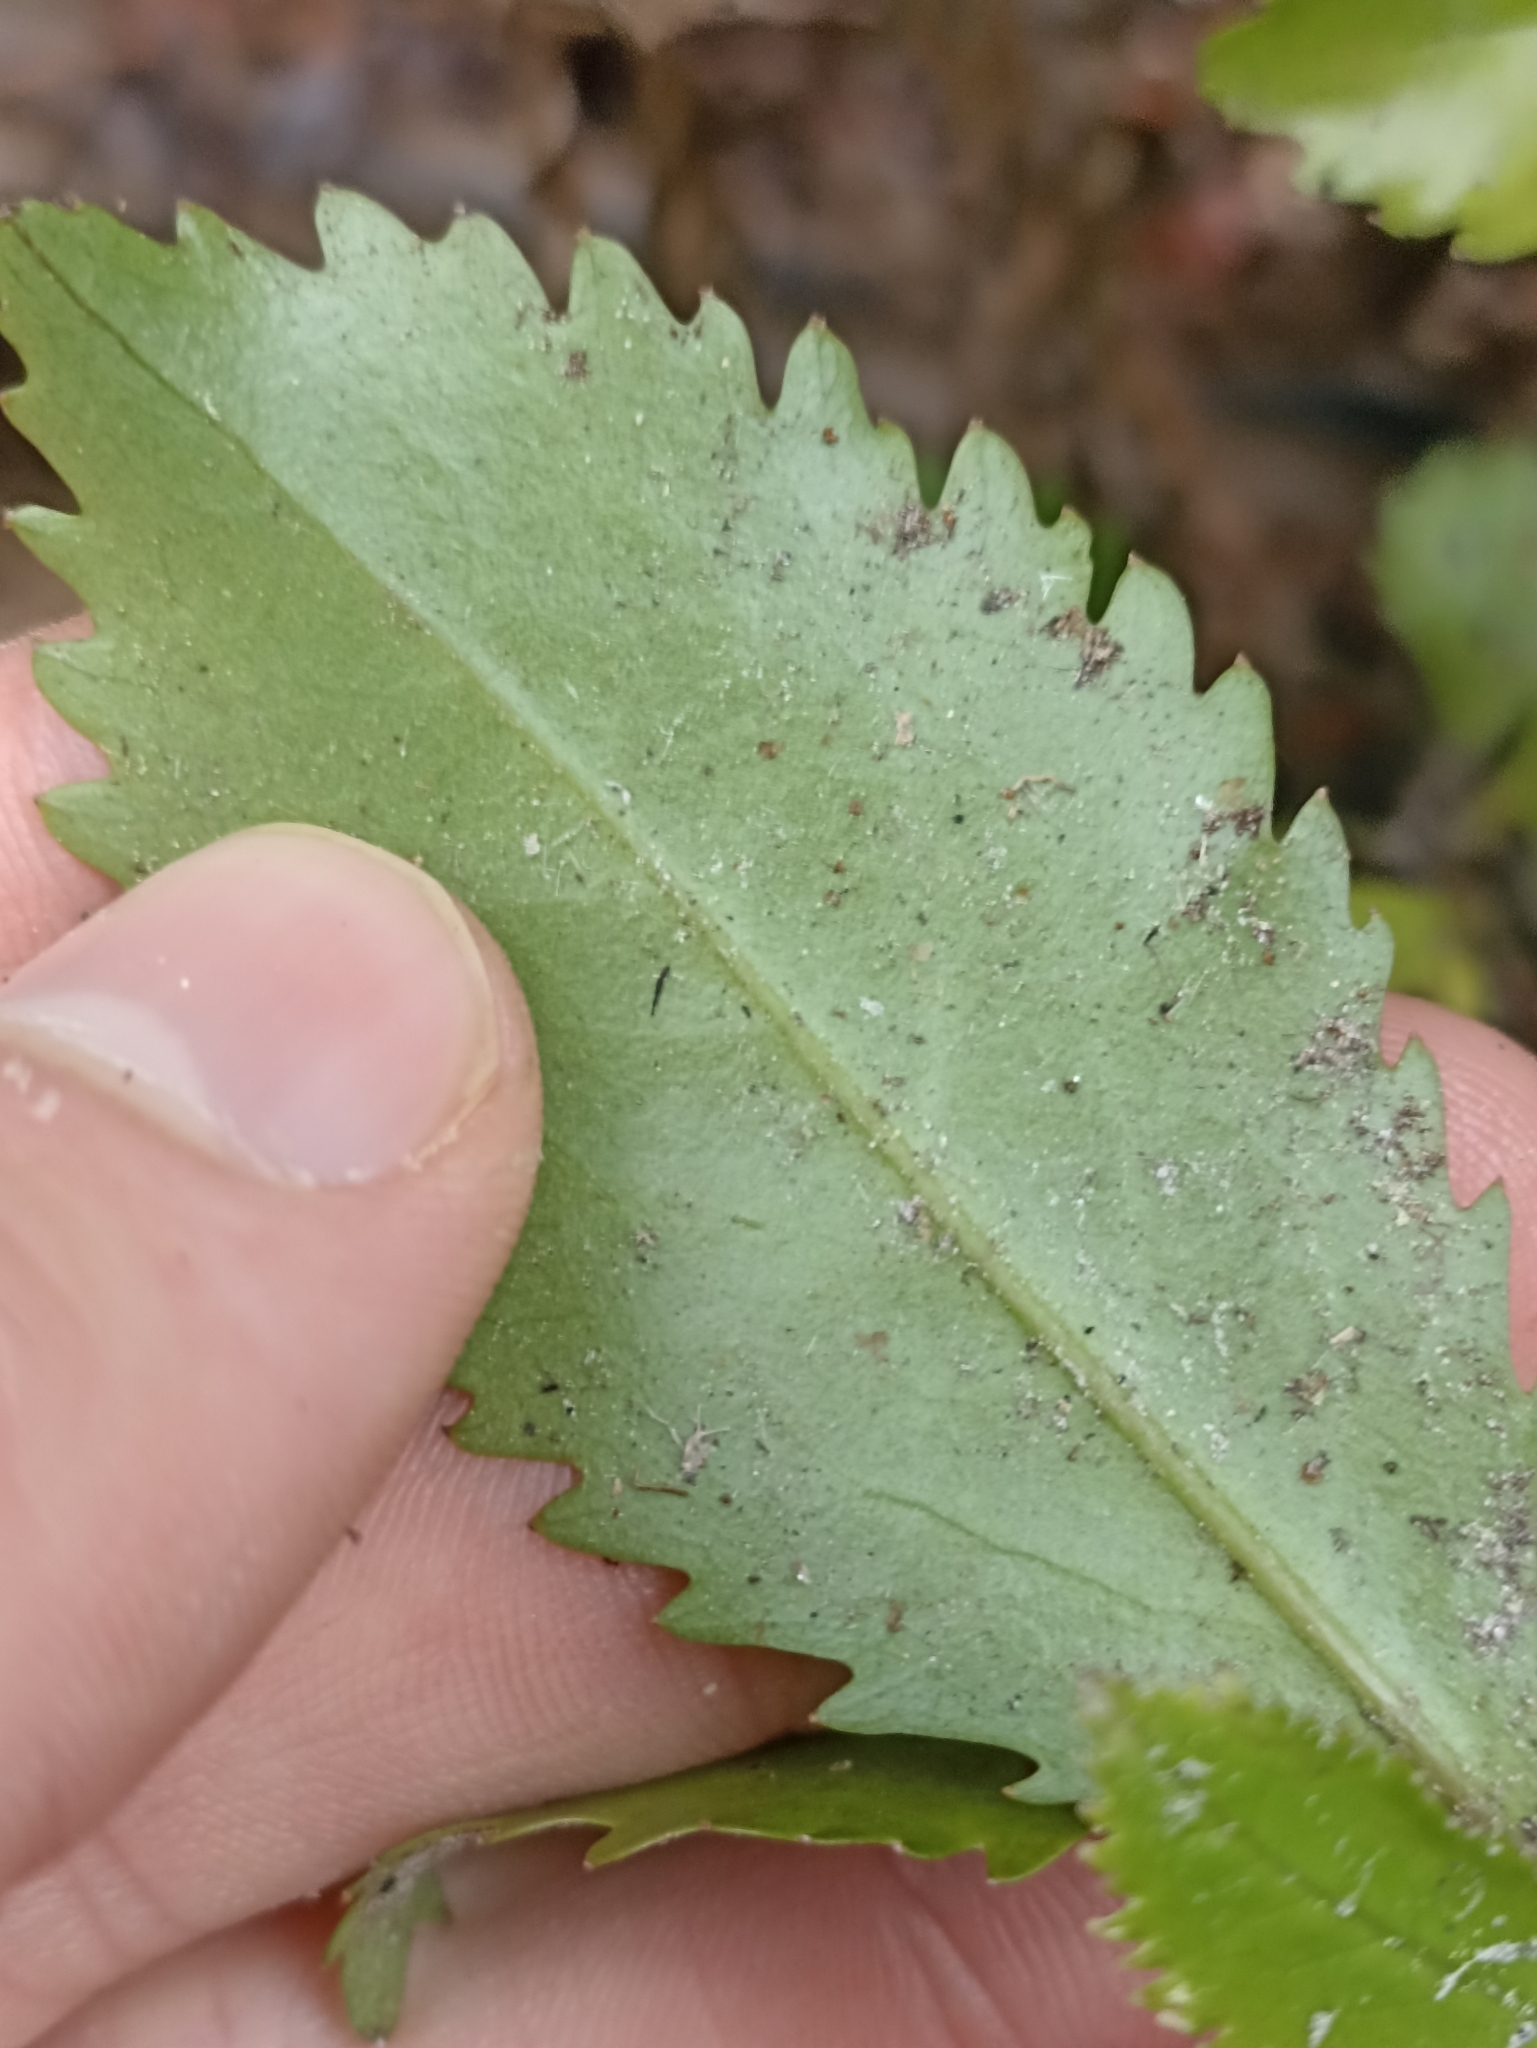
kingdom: Plantae
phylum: Tracheophyta
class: Magnoliopsida
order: Laurales
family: Atherospermataceae
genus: Laurelia
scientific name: Laurelia novae-zelandiae
